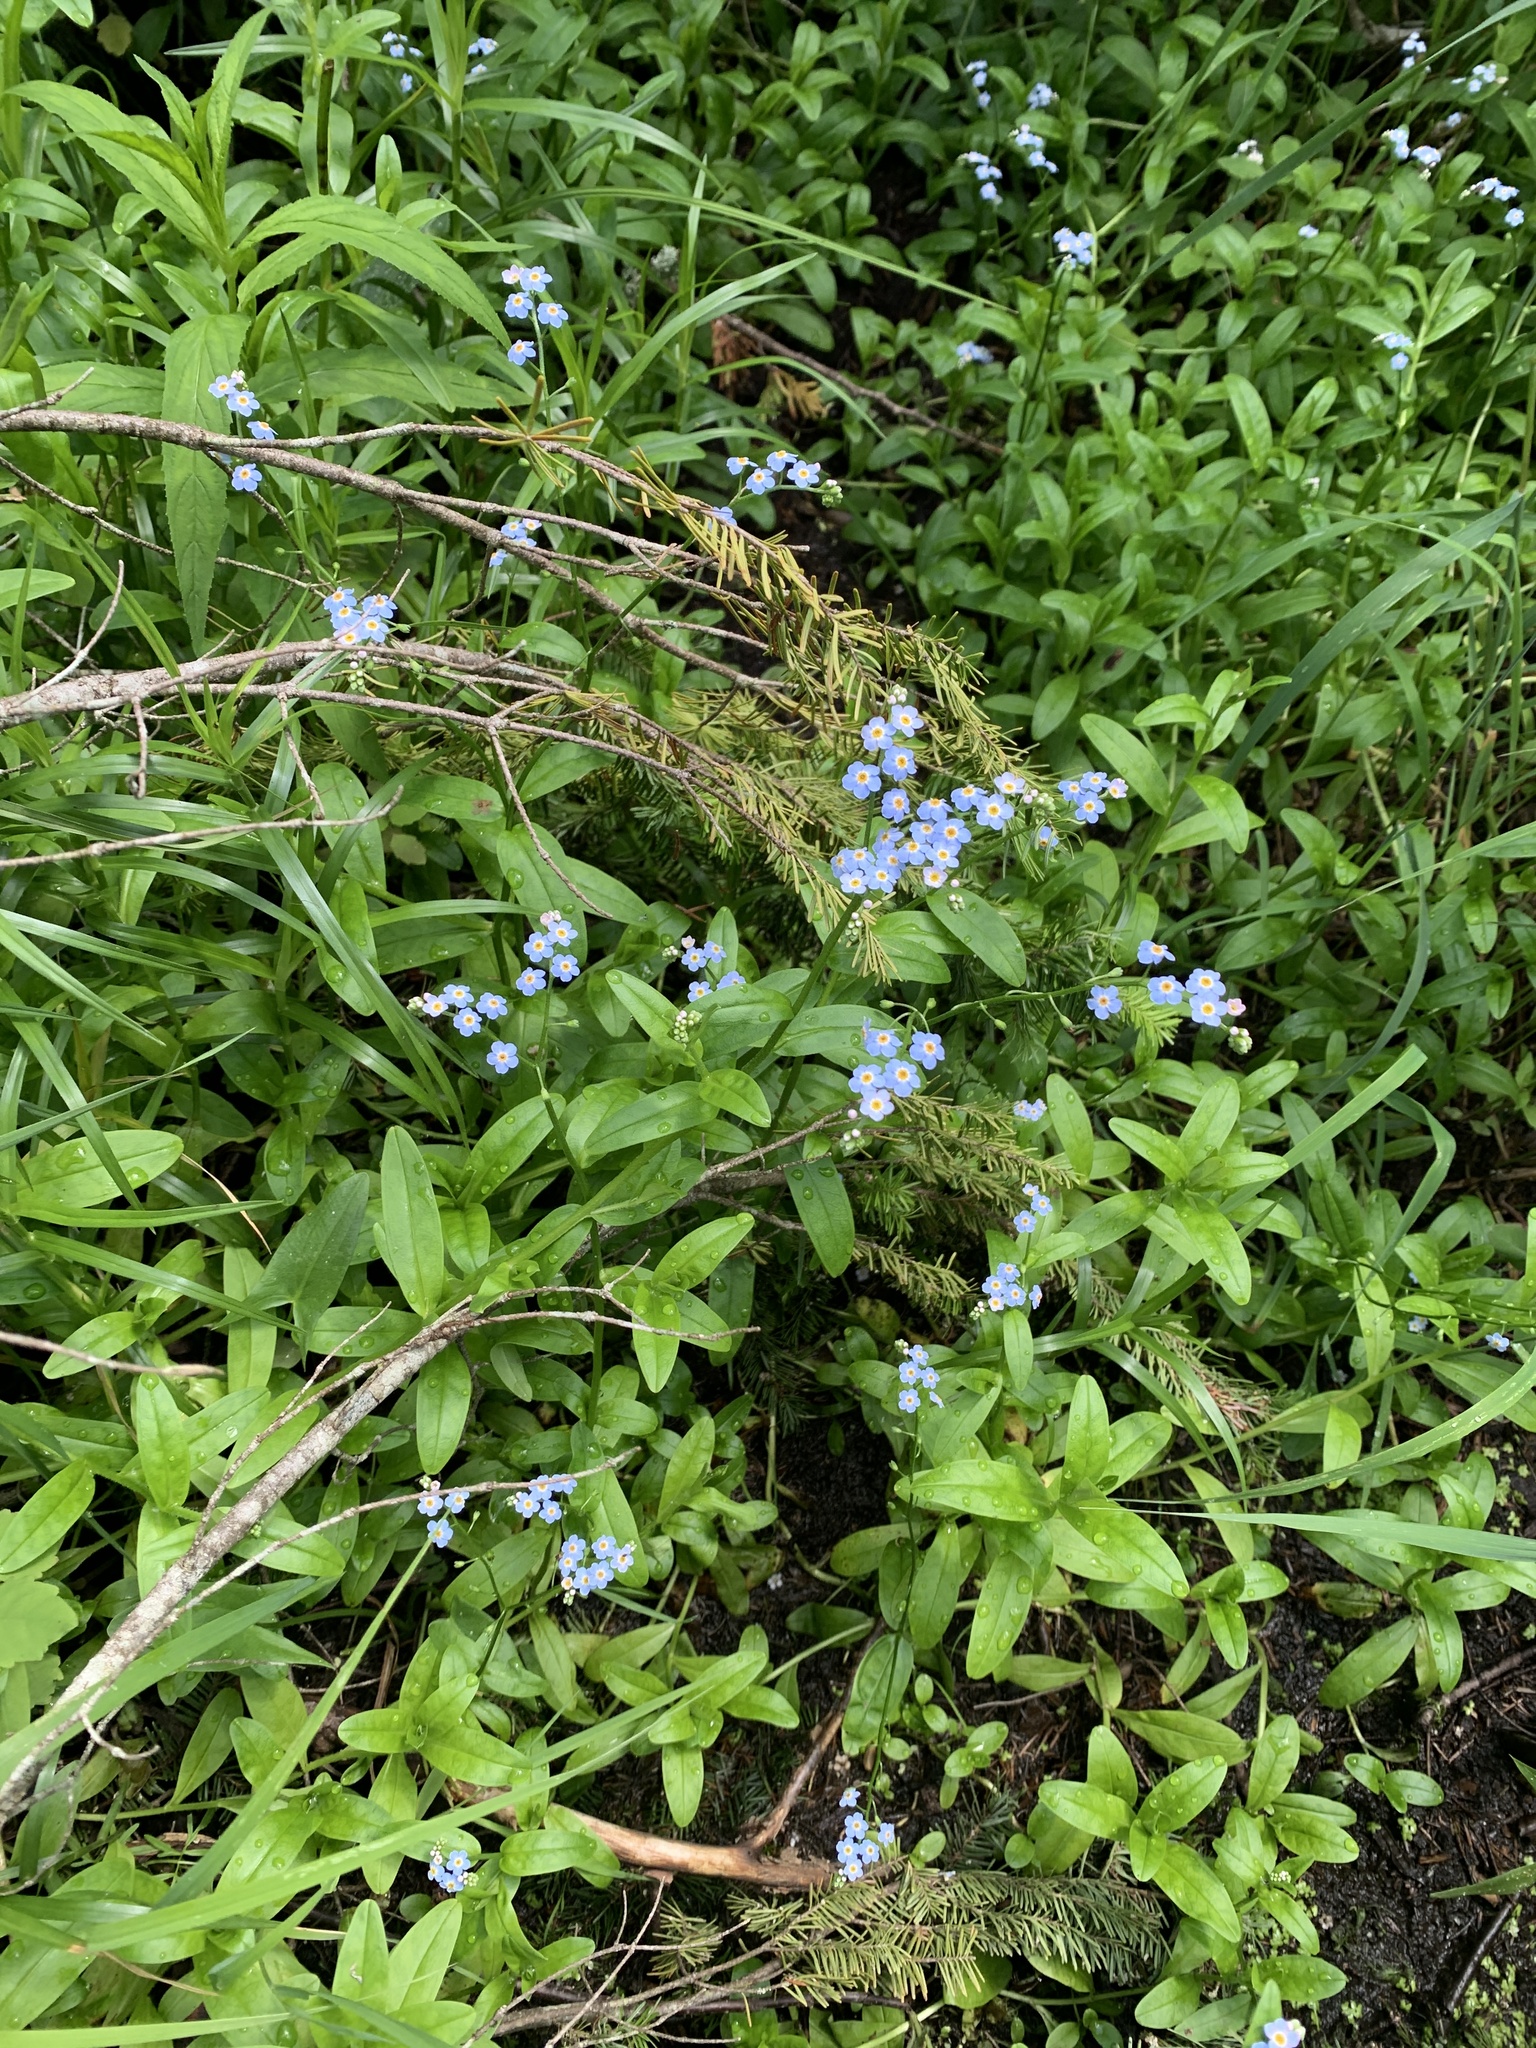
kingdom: Plantae
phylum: Tracheophyta
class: Magnoliopsida
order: Boraginales
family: Boraginaceae
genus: Myosotis
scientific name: Myosotis scorpioides
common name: Water forget-me-not
